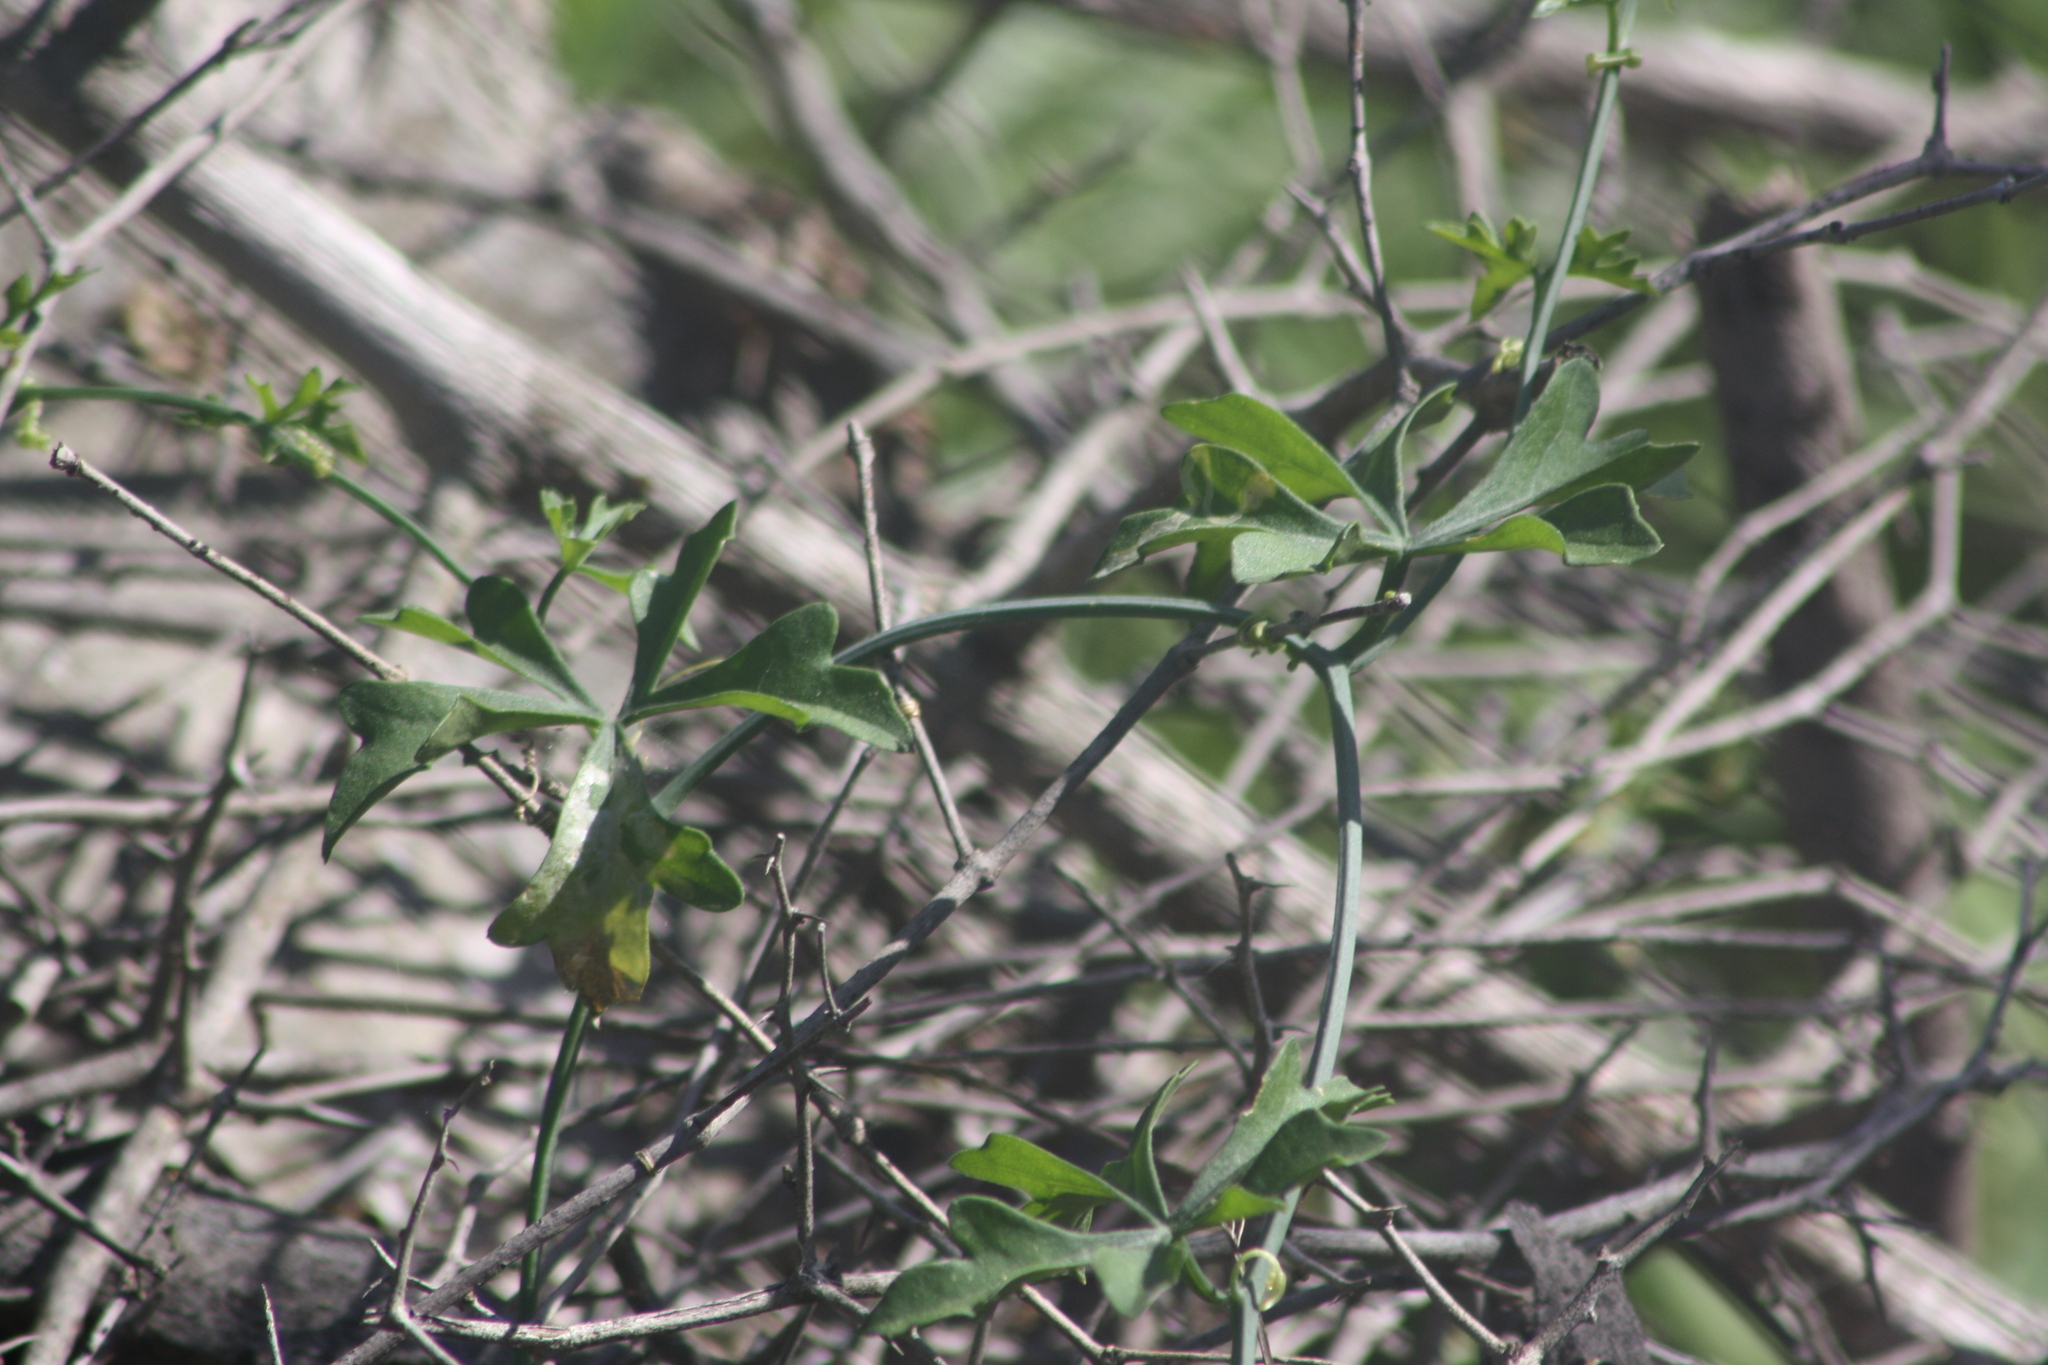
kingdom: Plantae
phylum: Tracheophyta
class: Magnoliopsida
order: Cucurbitales
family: Cucurbitaceae
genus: Ibervillea
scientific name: Ibervillea lindheimeri
